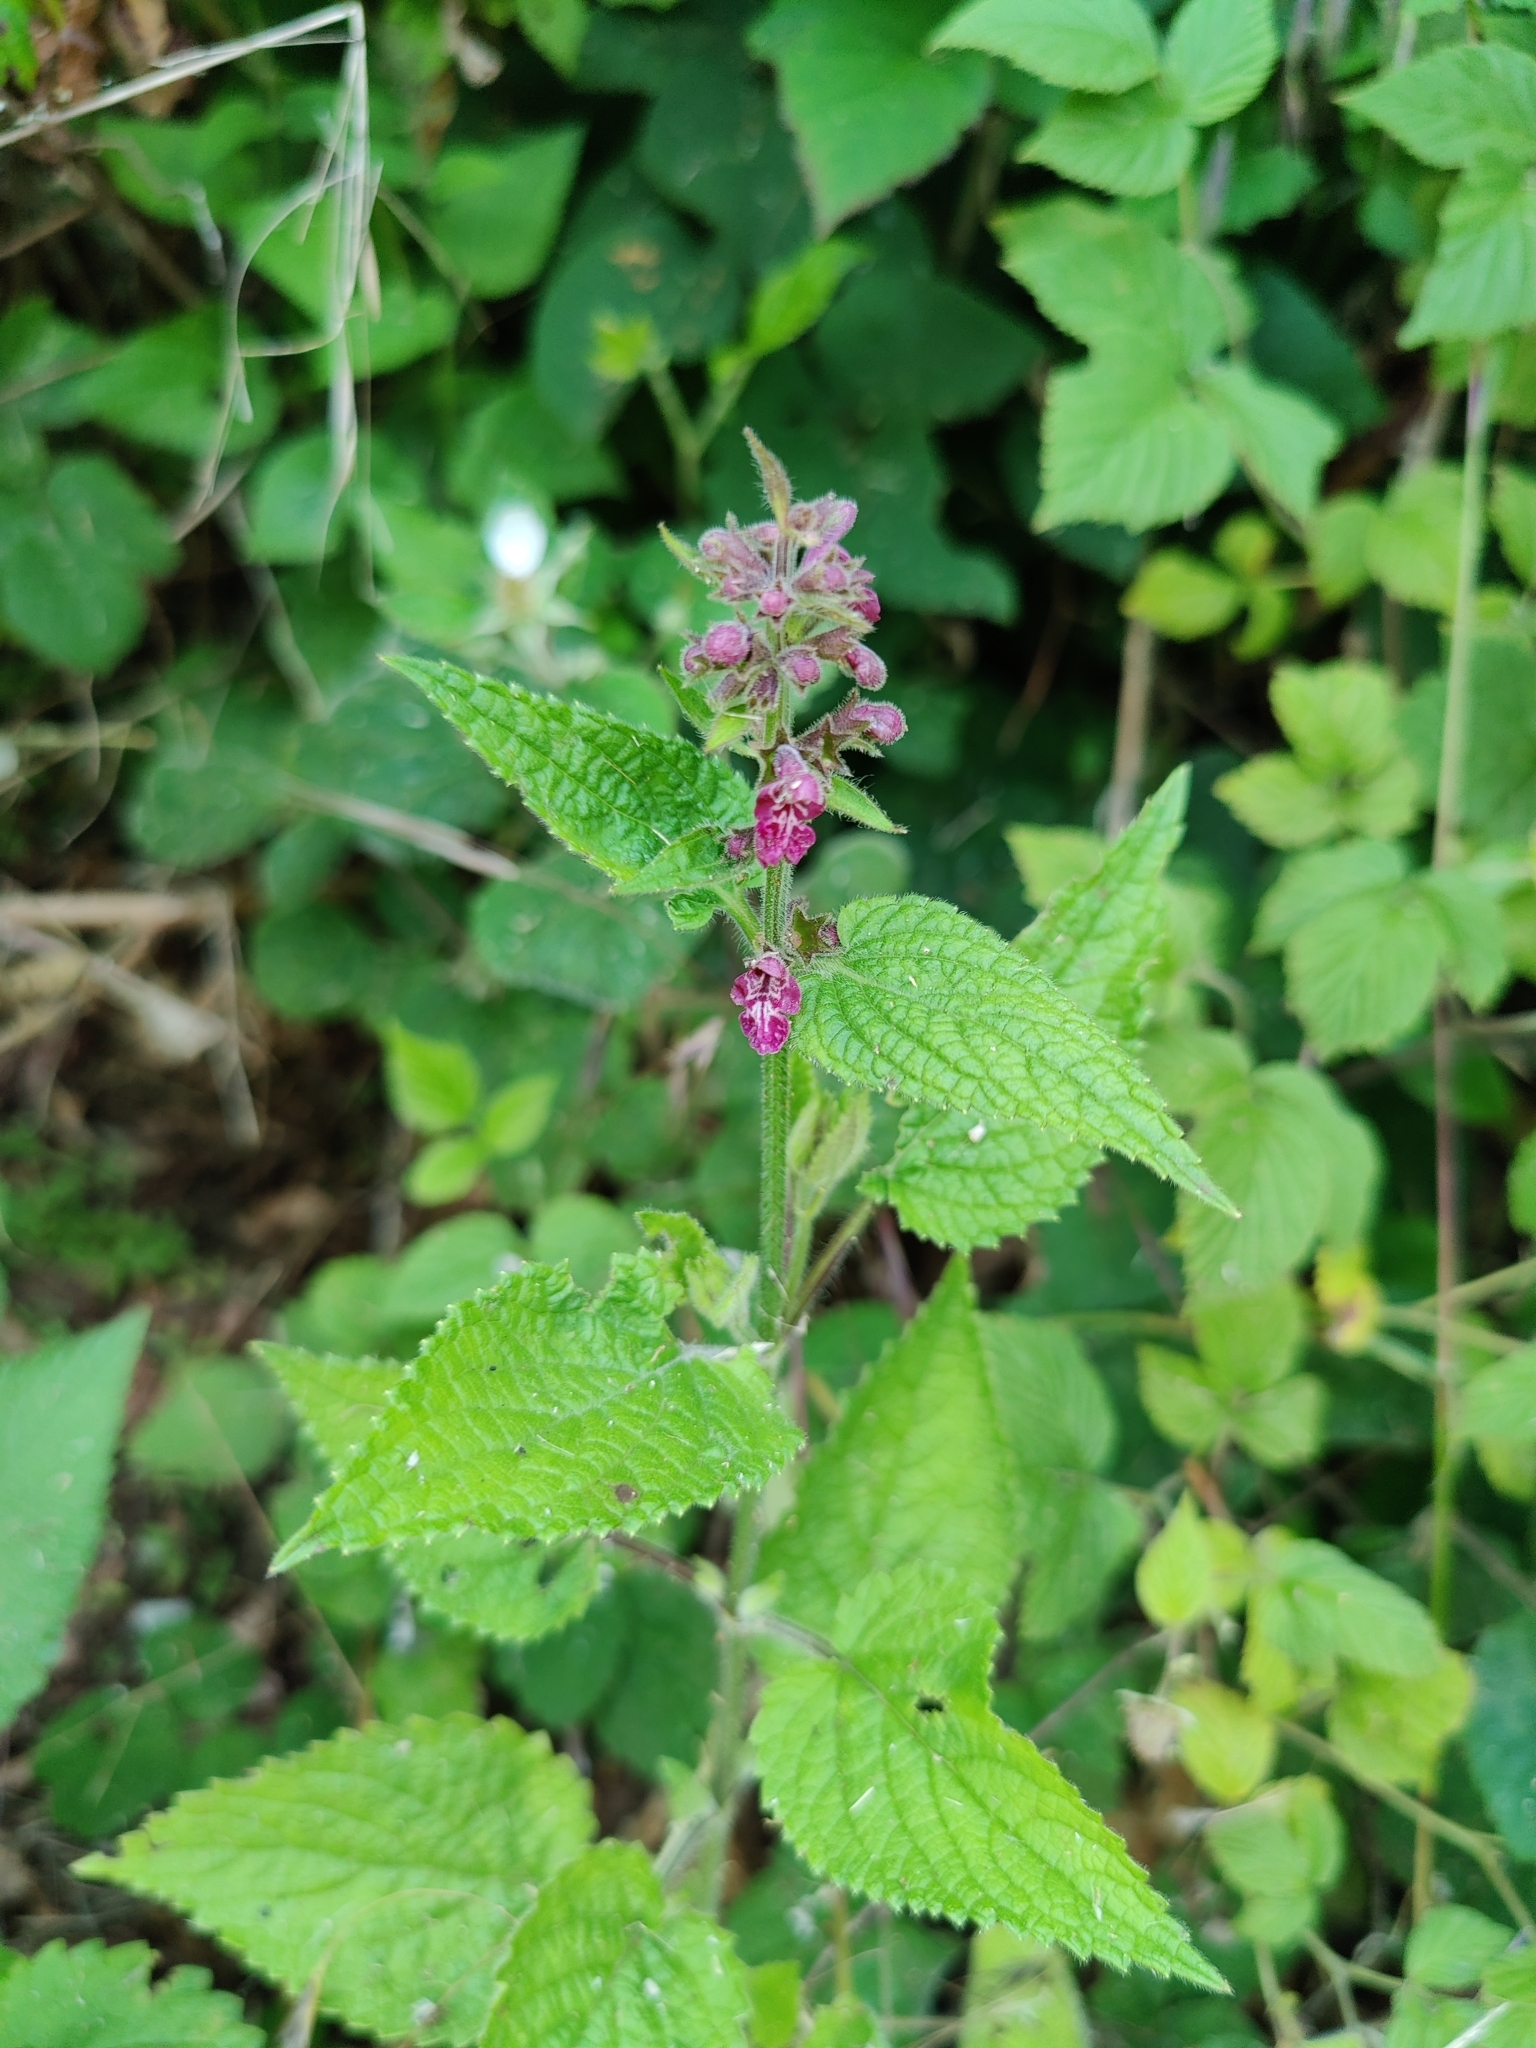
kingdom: Plantae
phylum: Tracheophyta
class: Magnoliopsida
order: Lamiales
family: Lamiaceae
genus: Stachys
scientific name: Stachys sylvatica
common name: Hedge woundwort
